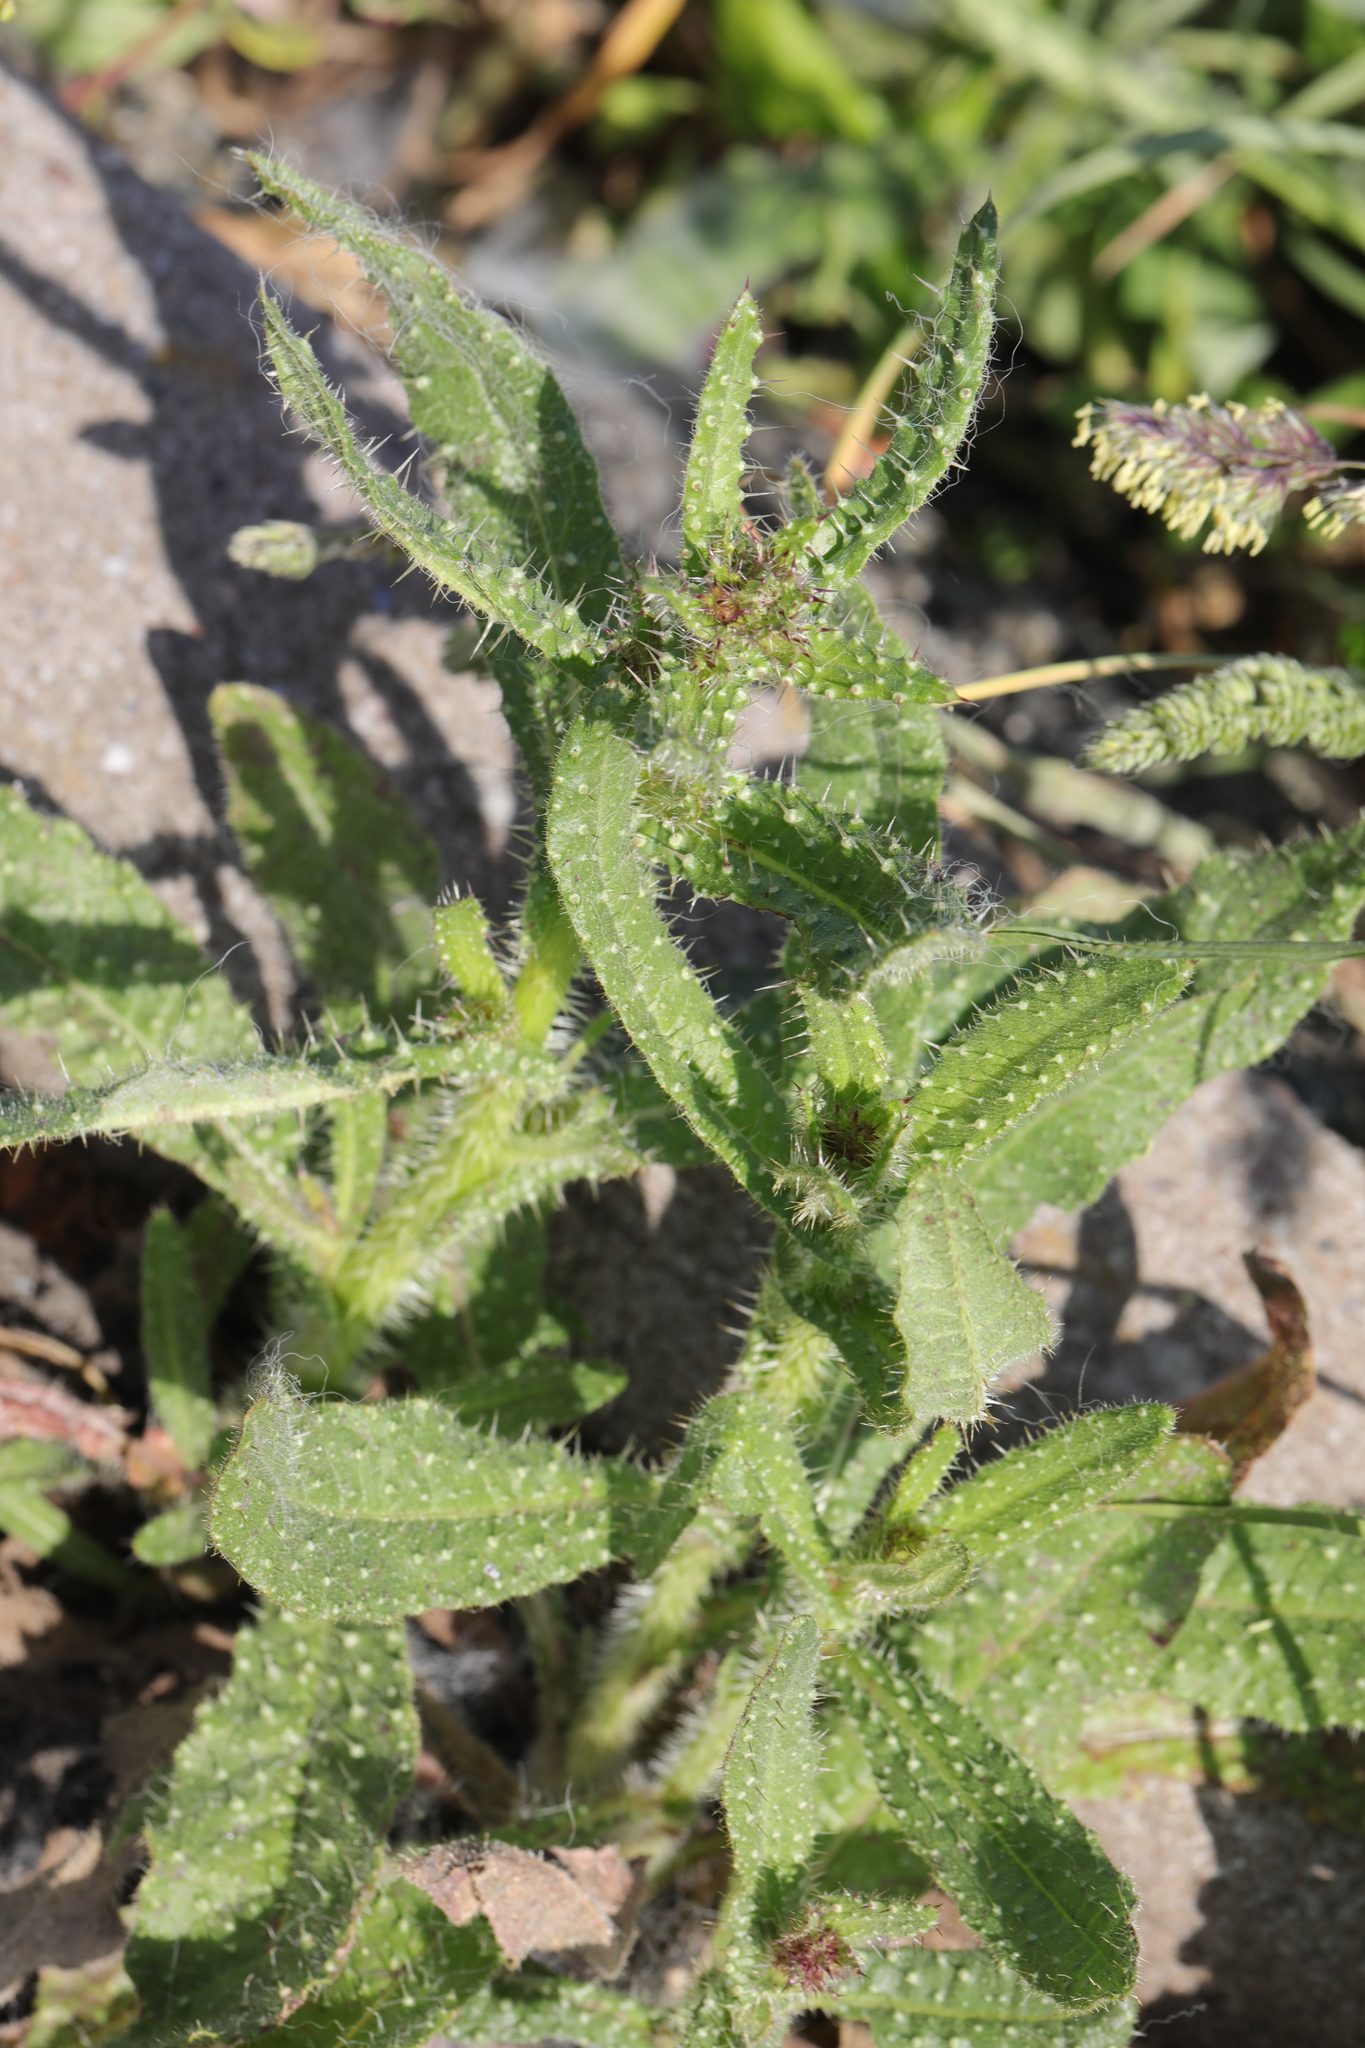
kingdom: Plantae
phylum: Tracheophyta
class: Magnoliopsida
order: Asterales
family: Asteraceae
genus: Helminthotheca
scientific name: Helminthotheca echioides
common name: Ox-tongue
